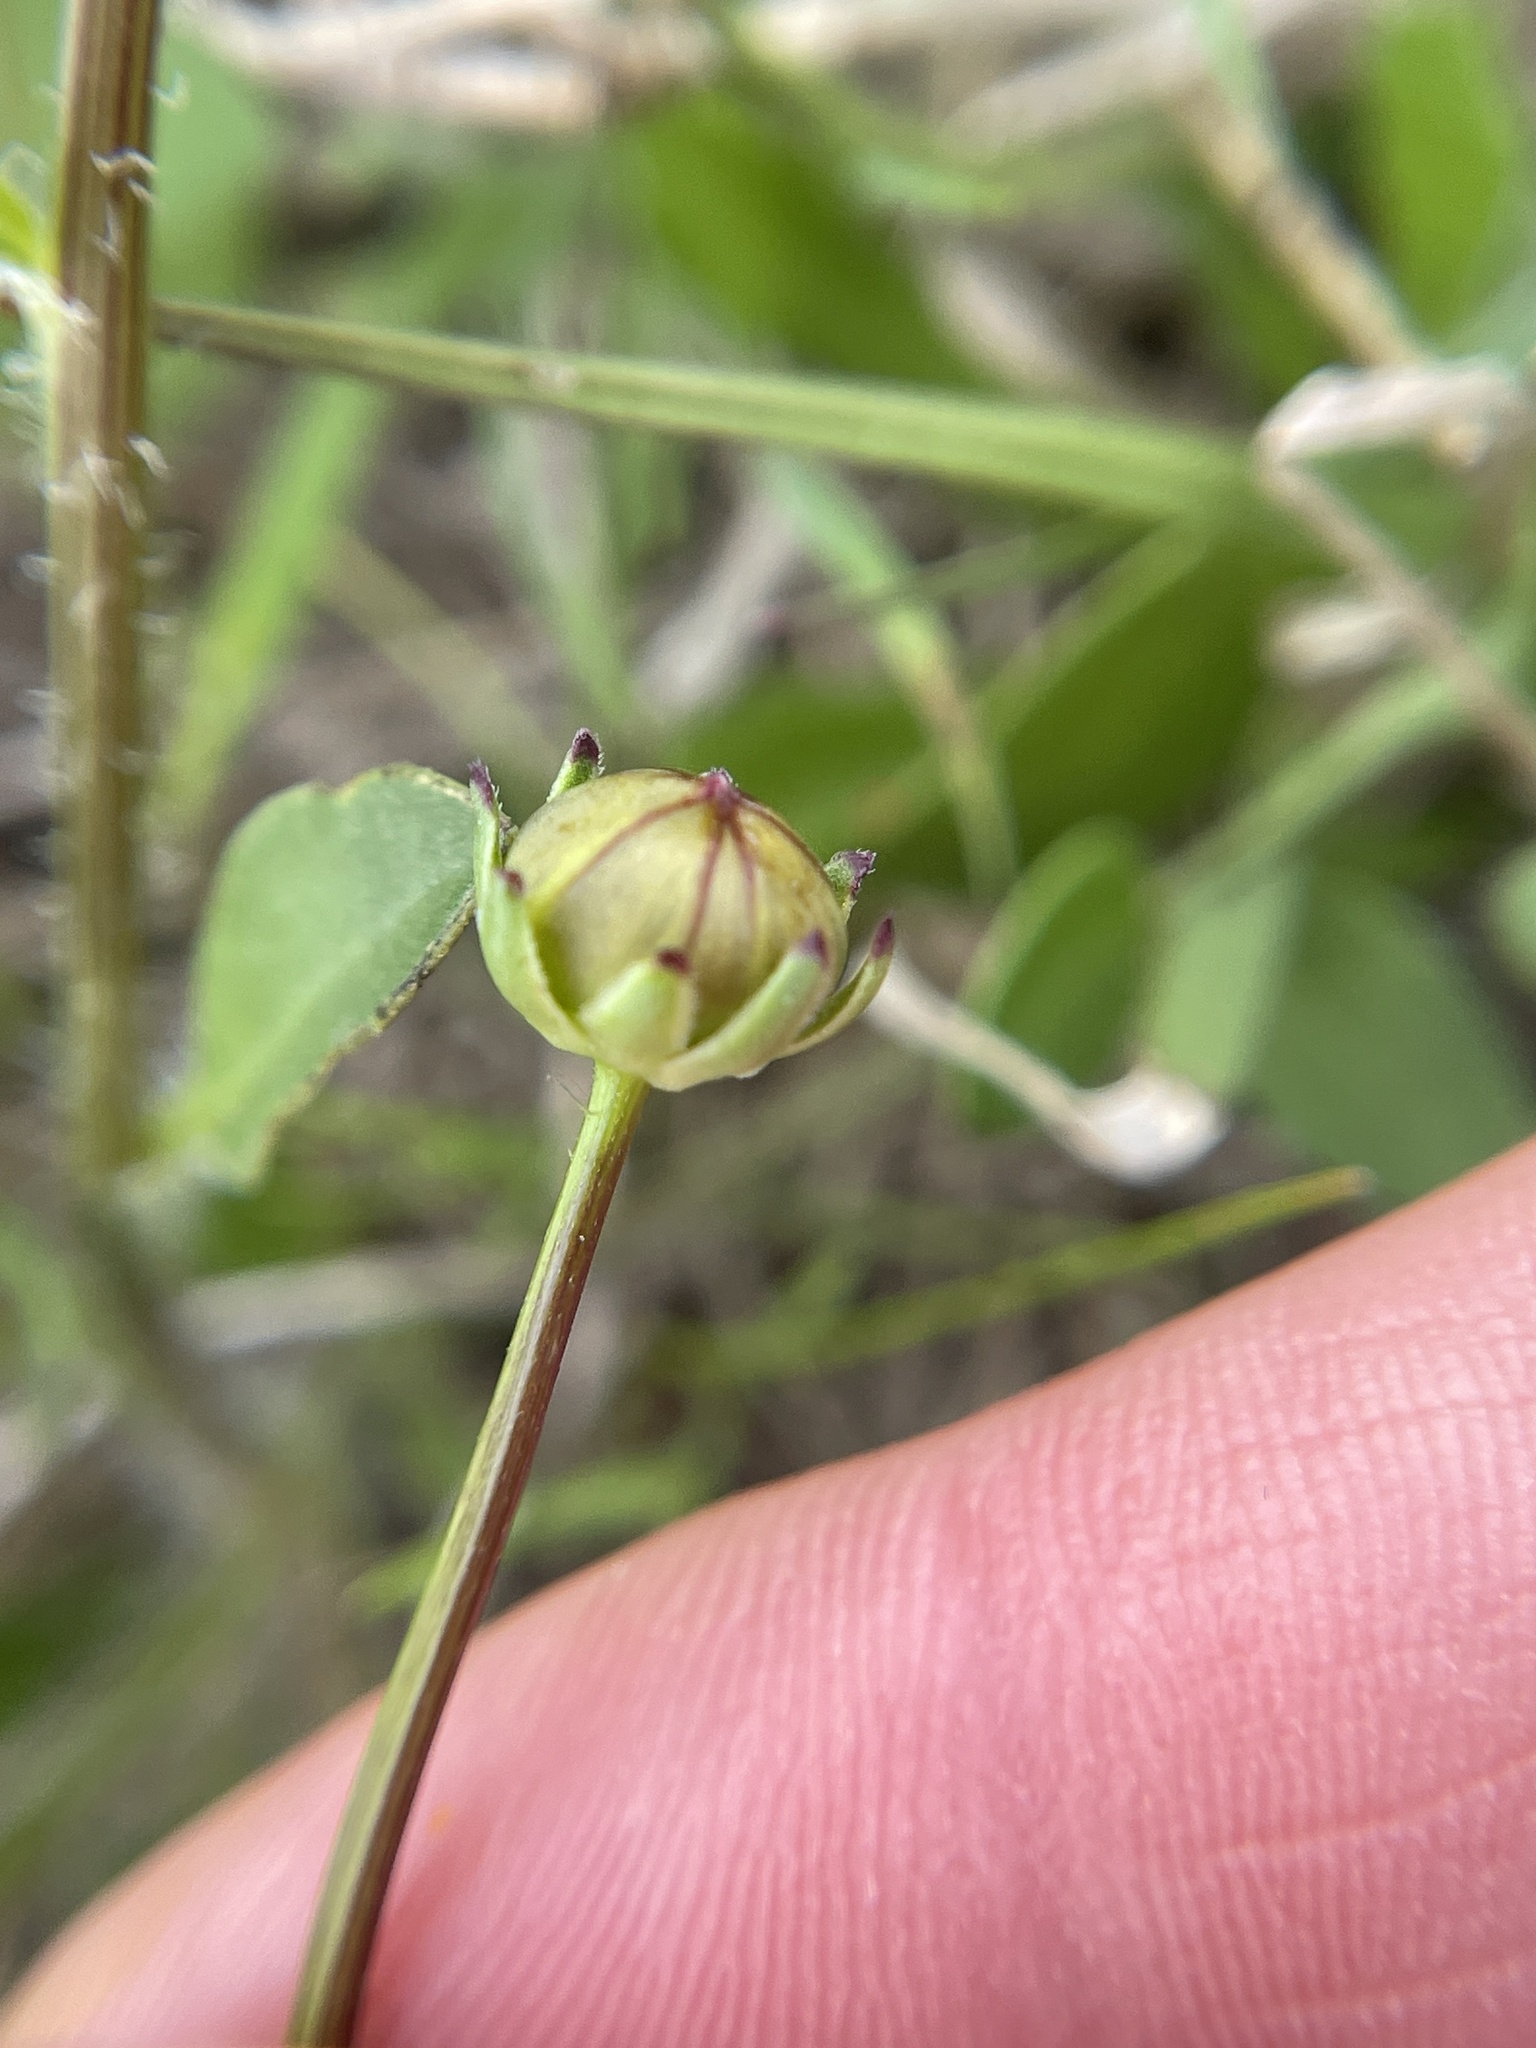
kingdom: Plantae
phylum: Tracheophyta
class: Magnoliopsida
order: Asterales
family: Asteraceae
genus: Coreopsis
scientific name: Coreopsis nuecensis
